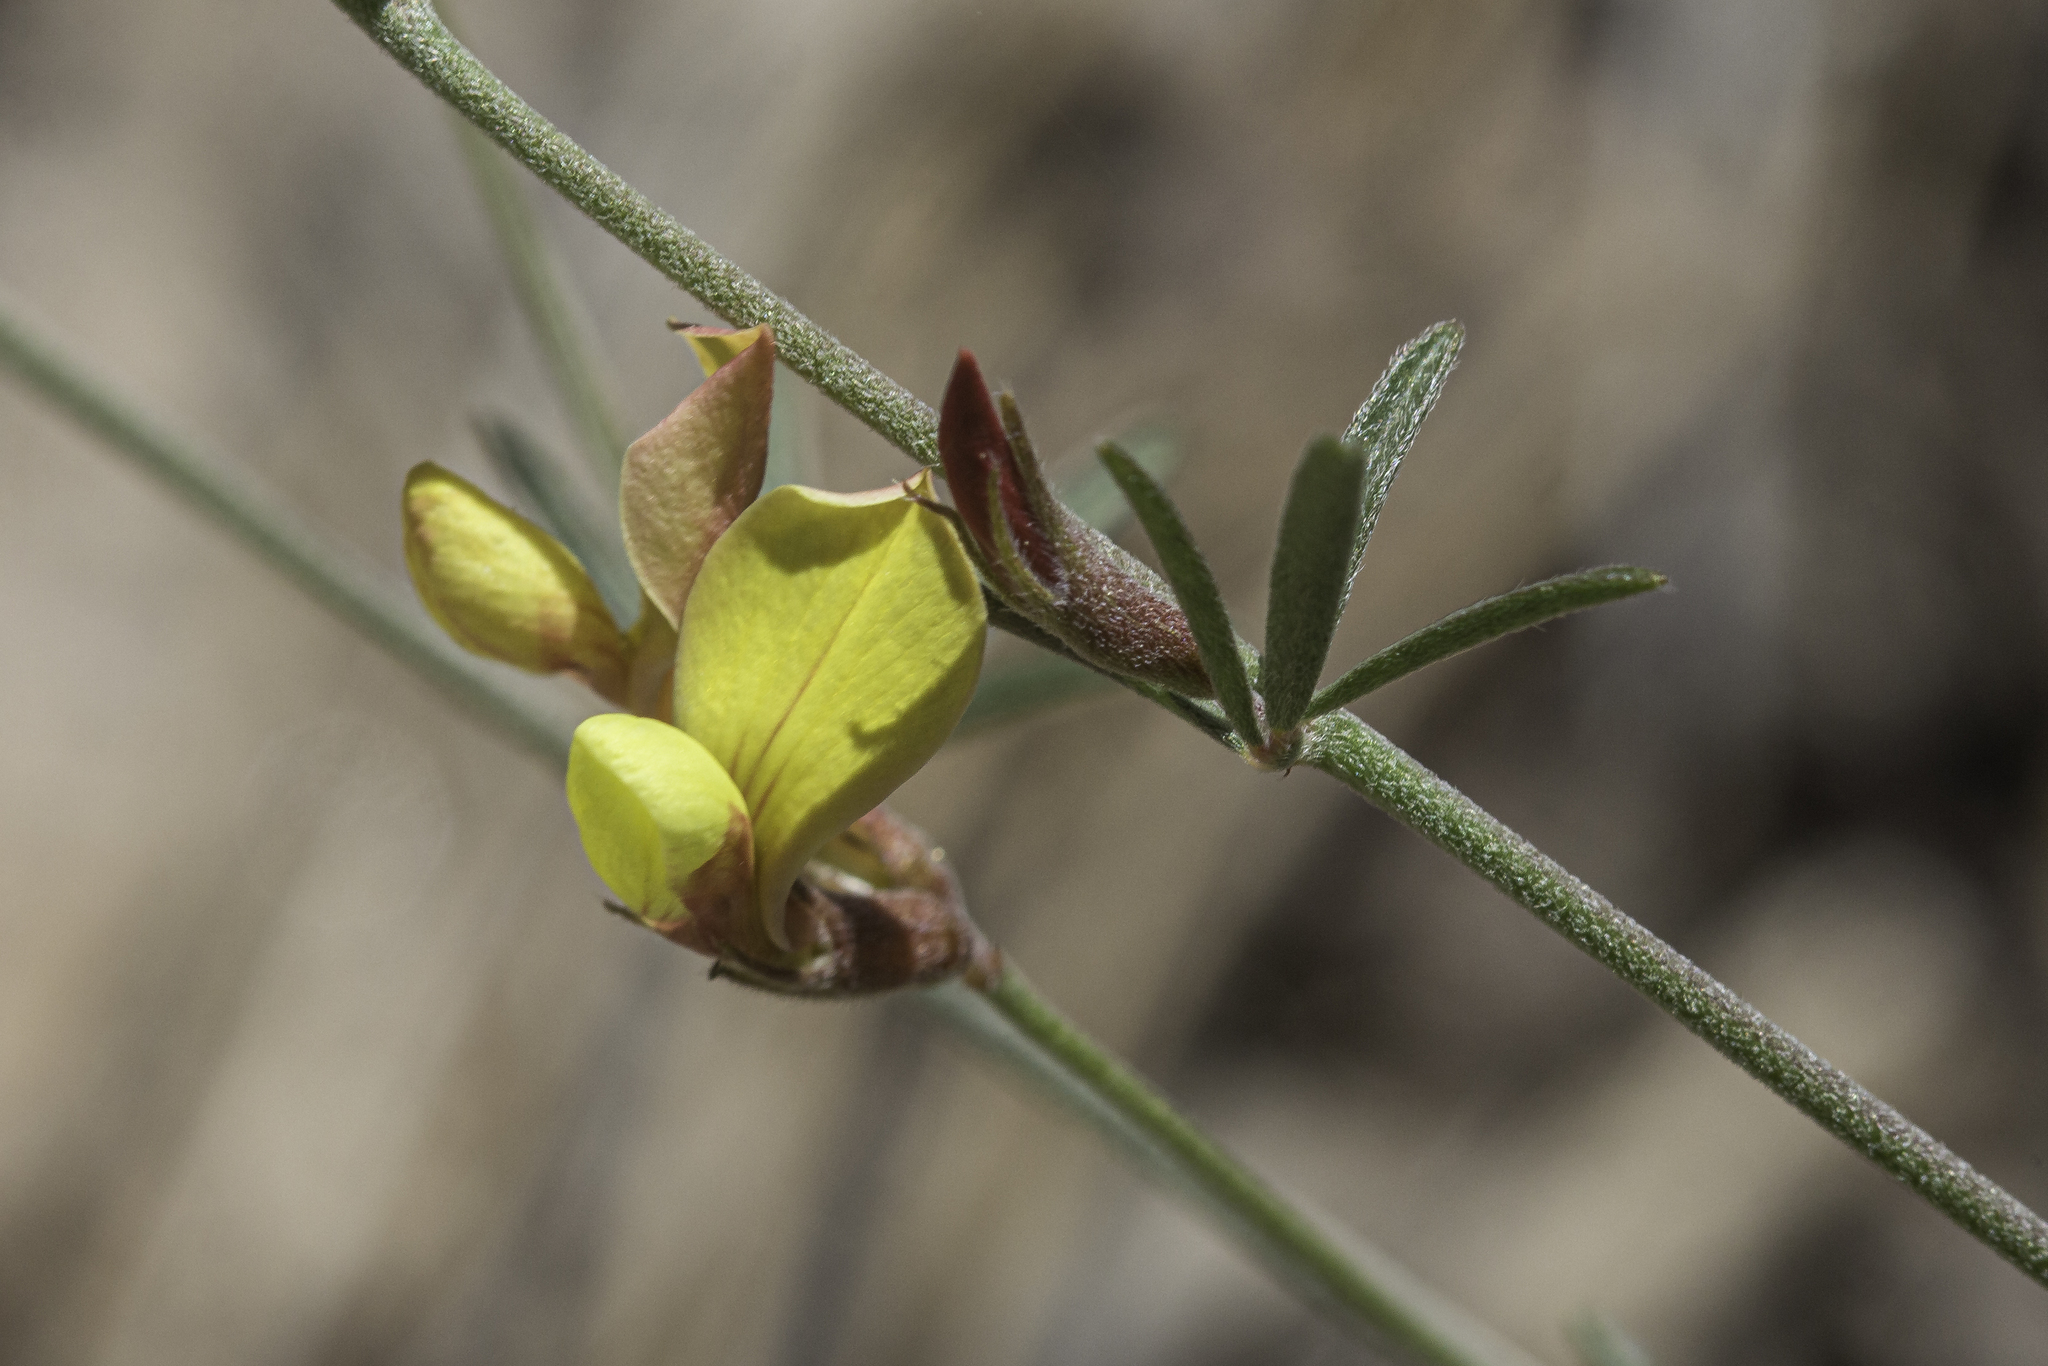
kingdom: Plantae
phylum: Tracheophyta
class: Magnoliopsida
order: Fabales
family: Fabaceae
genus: Acmispon
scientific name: Acmispon wrightii
